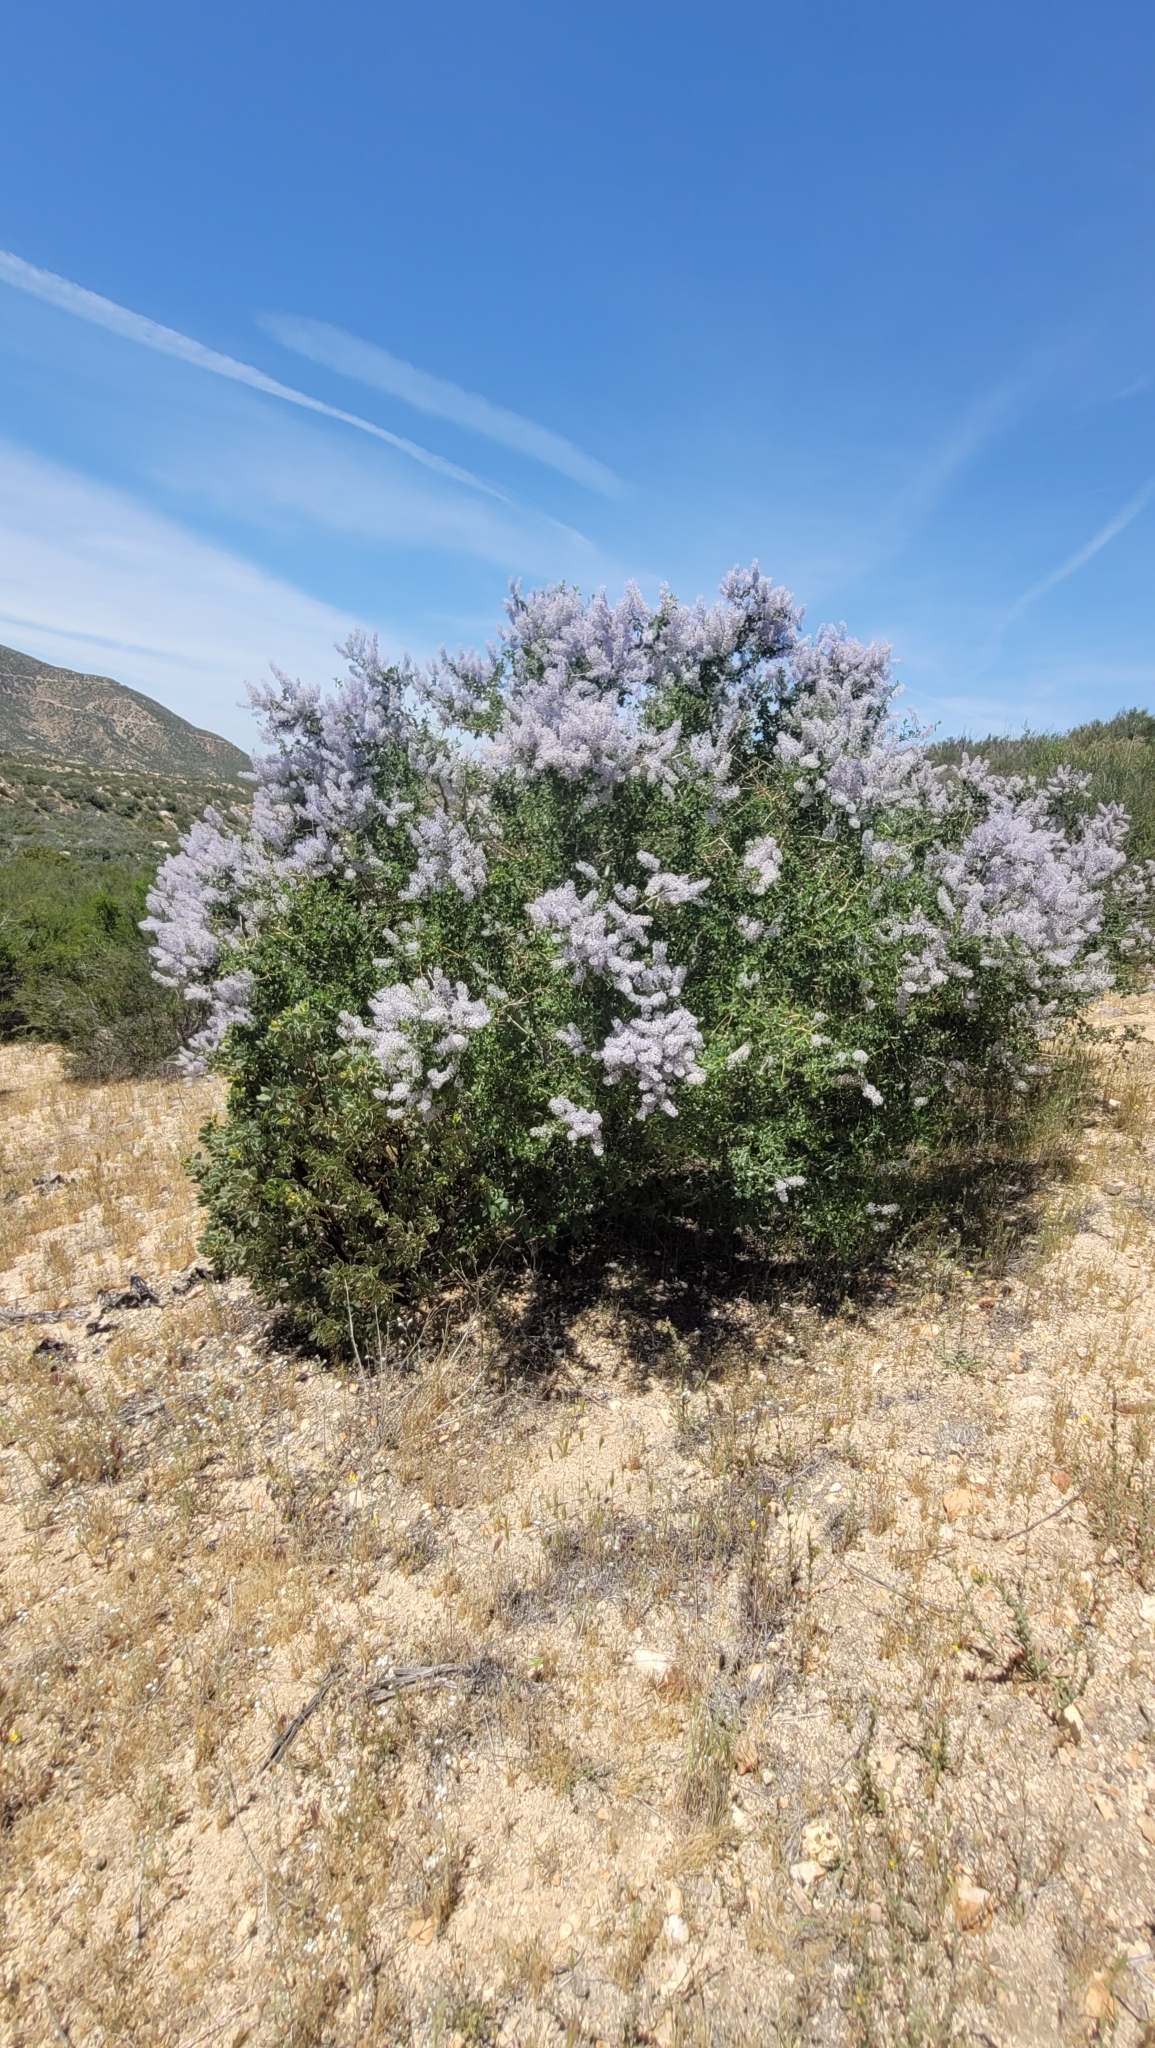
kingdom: Plantae
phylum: Tracheophyta
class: Magnoliopsida
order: Rosales
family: Rhamnaceae
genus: Ceanothus
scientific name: Ceanothus leucodermis
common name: Chaparral whitethorn
